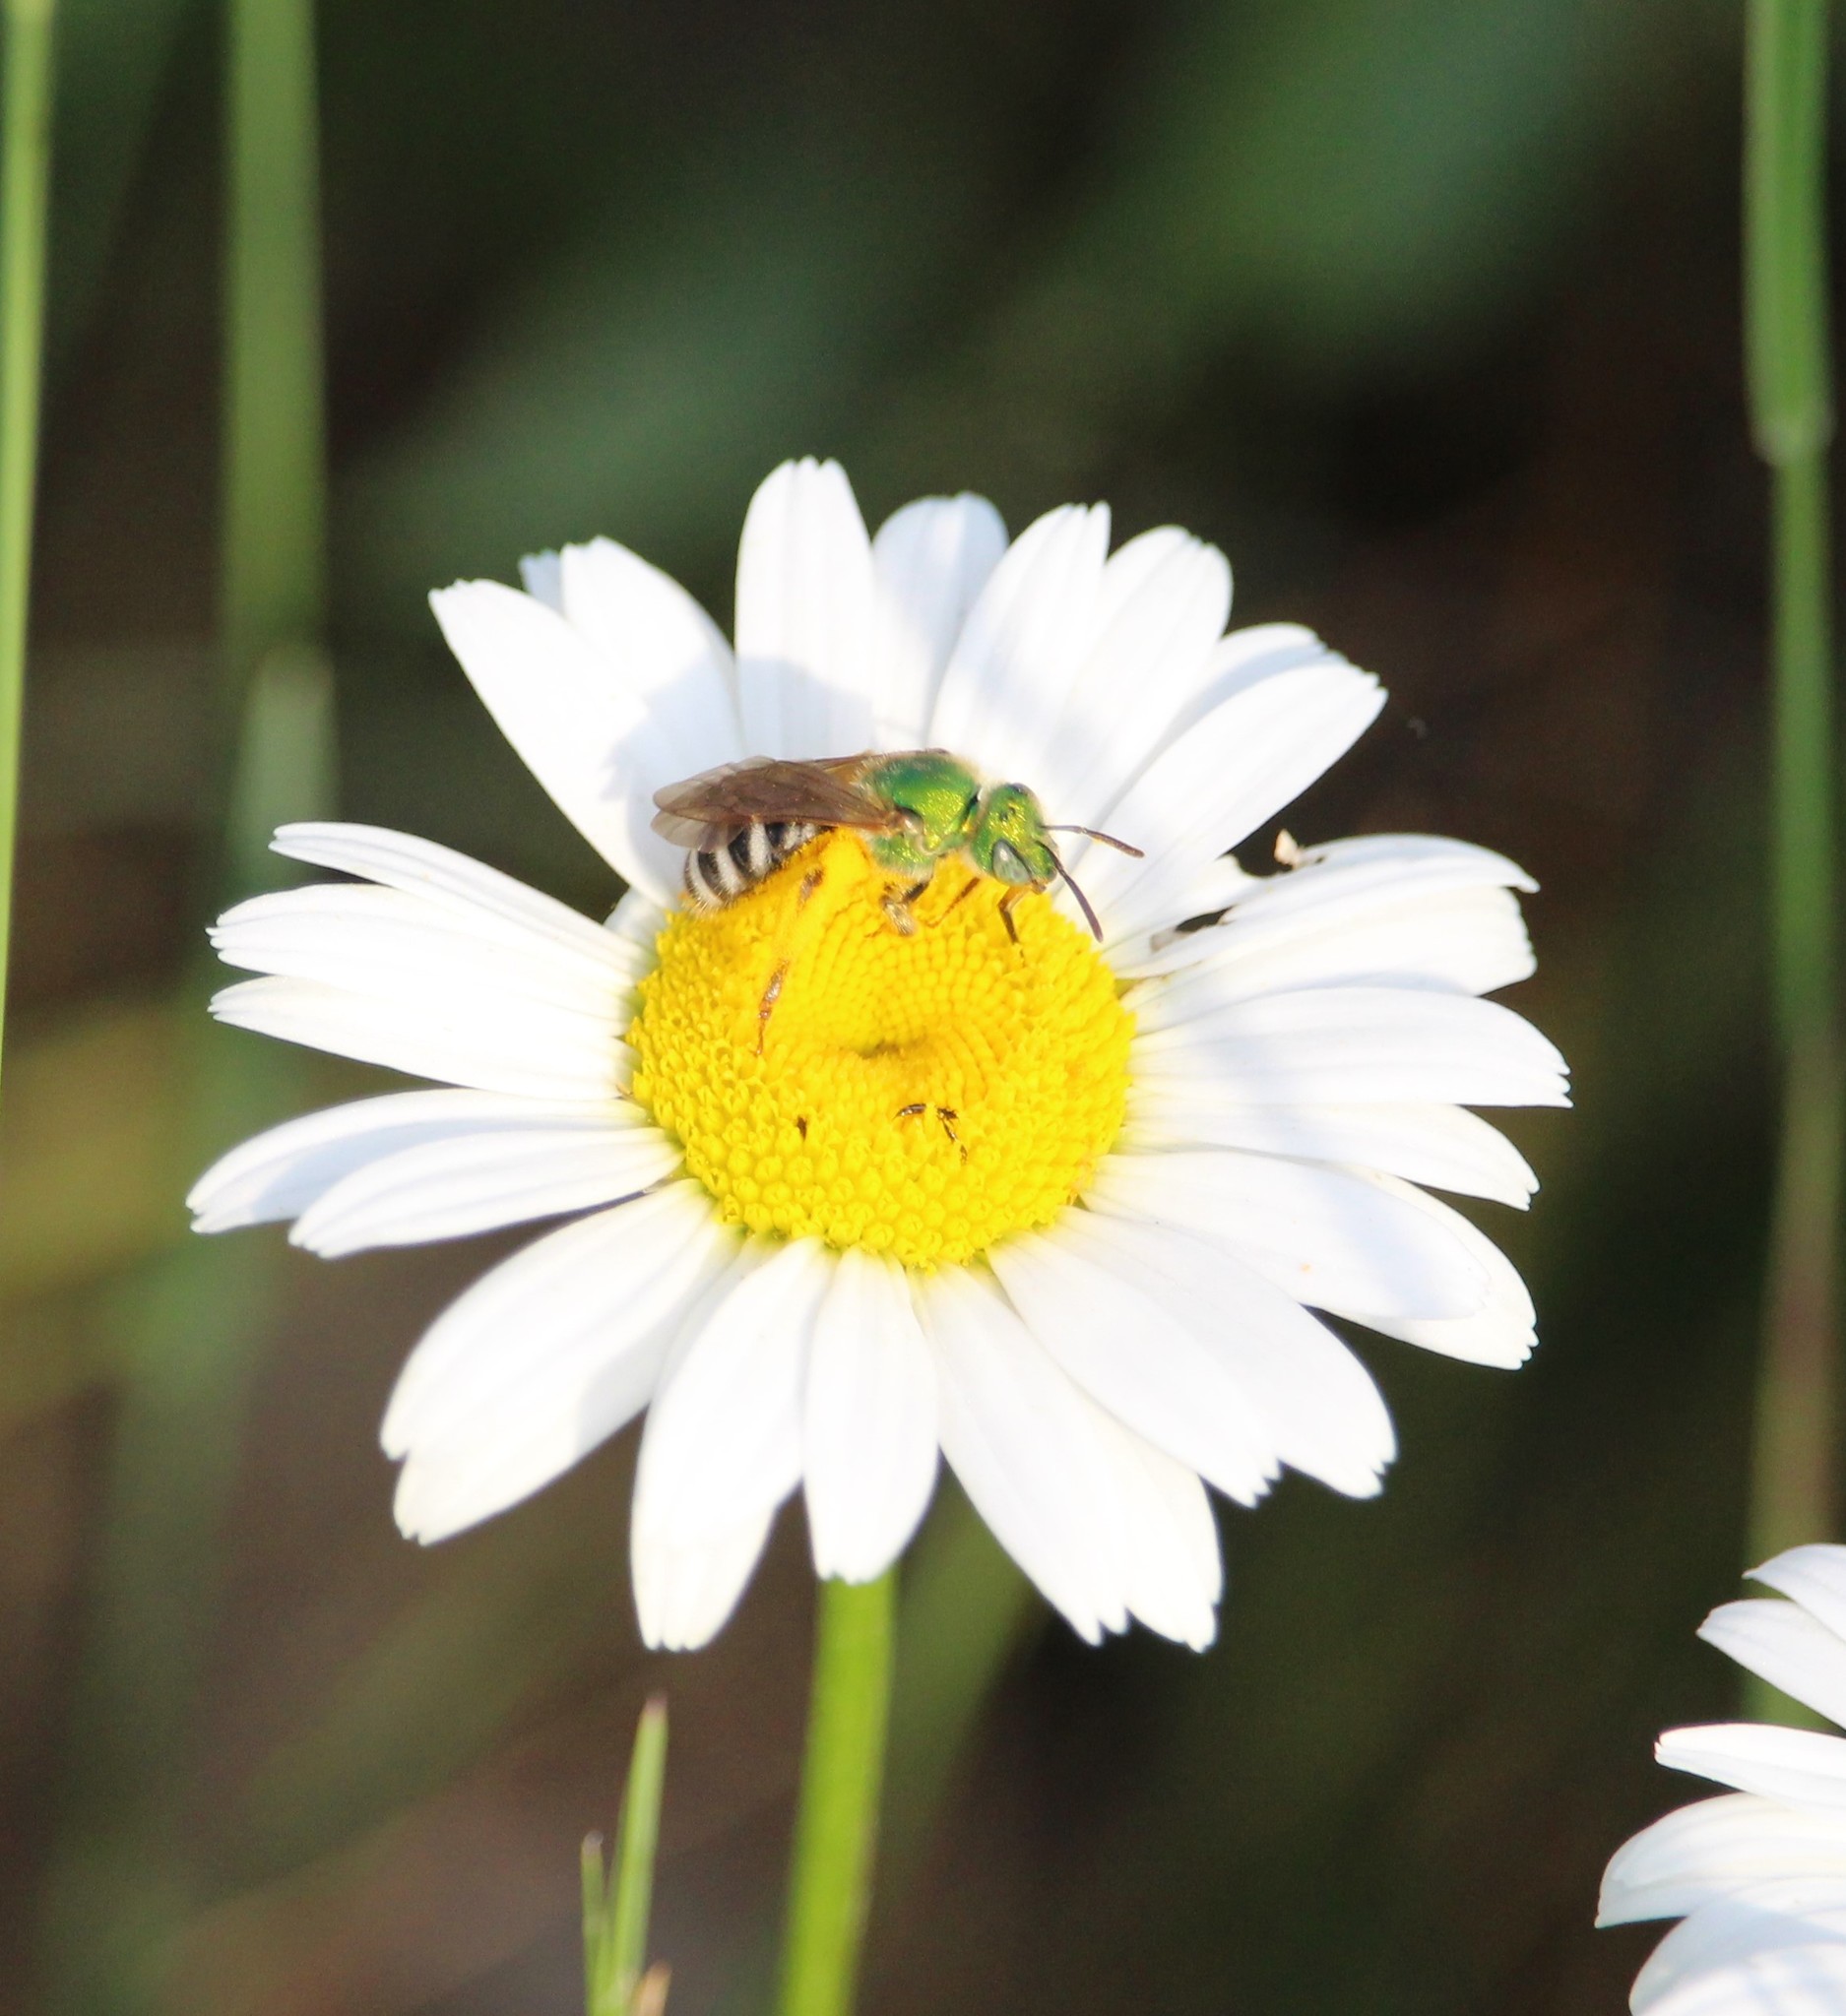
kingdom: Animalia
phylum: Arthropoda
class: Insecta
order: Hymenoptera
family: Halictidae
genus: Agapostemon
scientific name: Agapostemon virescens
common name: Bicolored striped sweat bee
